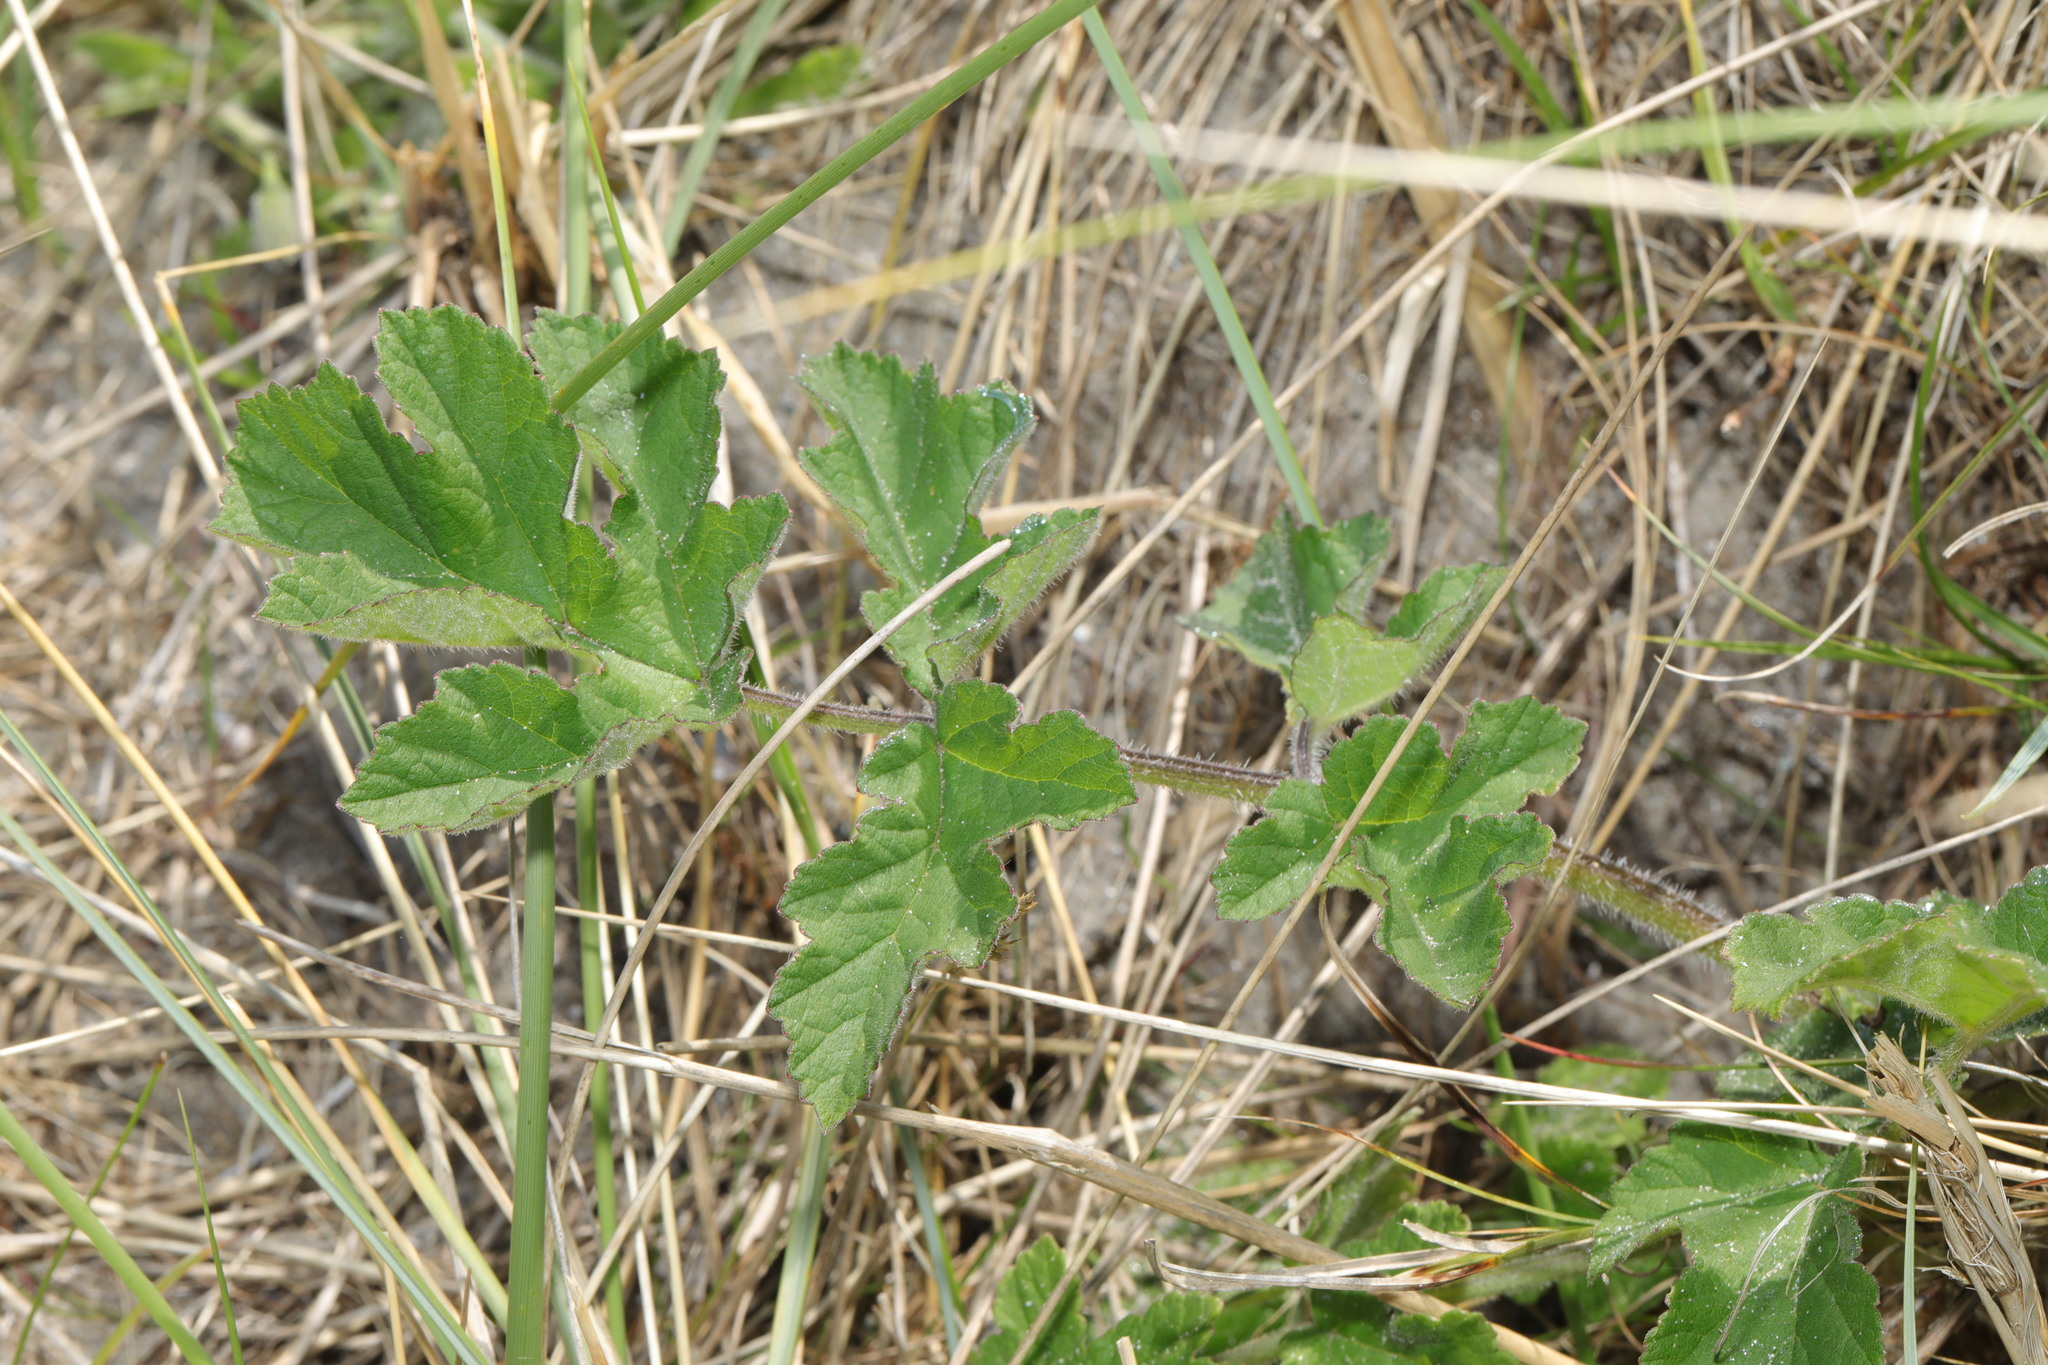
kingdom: Plantae
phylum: Tracheophyta
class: Magnoliopsida
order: Apiales
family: Apiaceae
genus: Heracleum
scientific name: Heracleum sphondylium
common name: Hogweed
